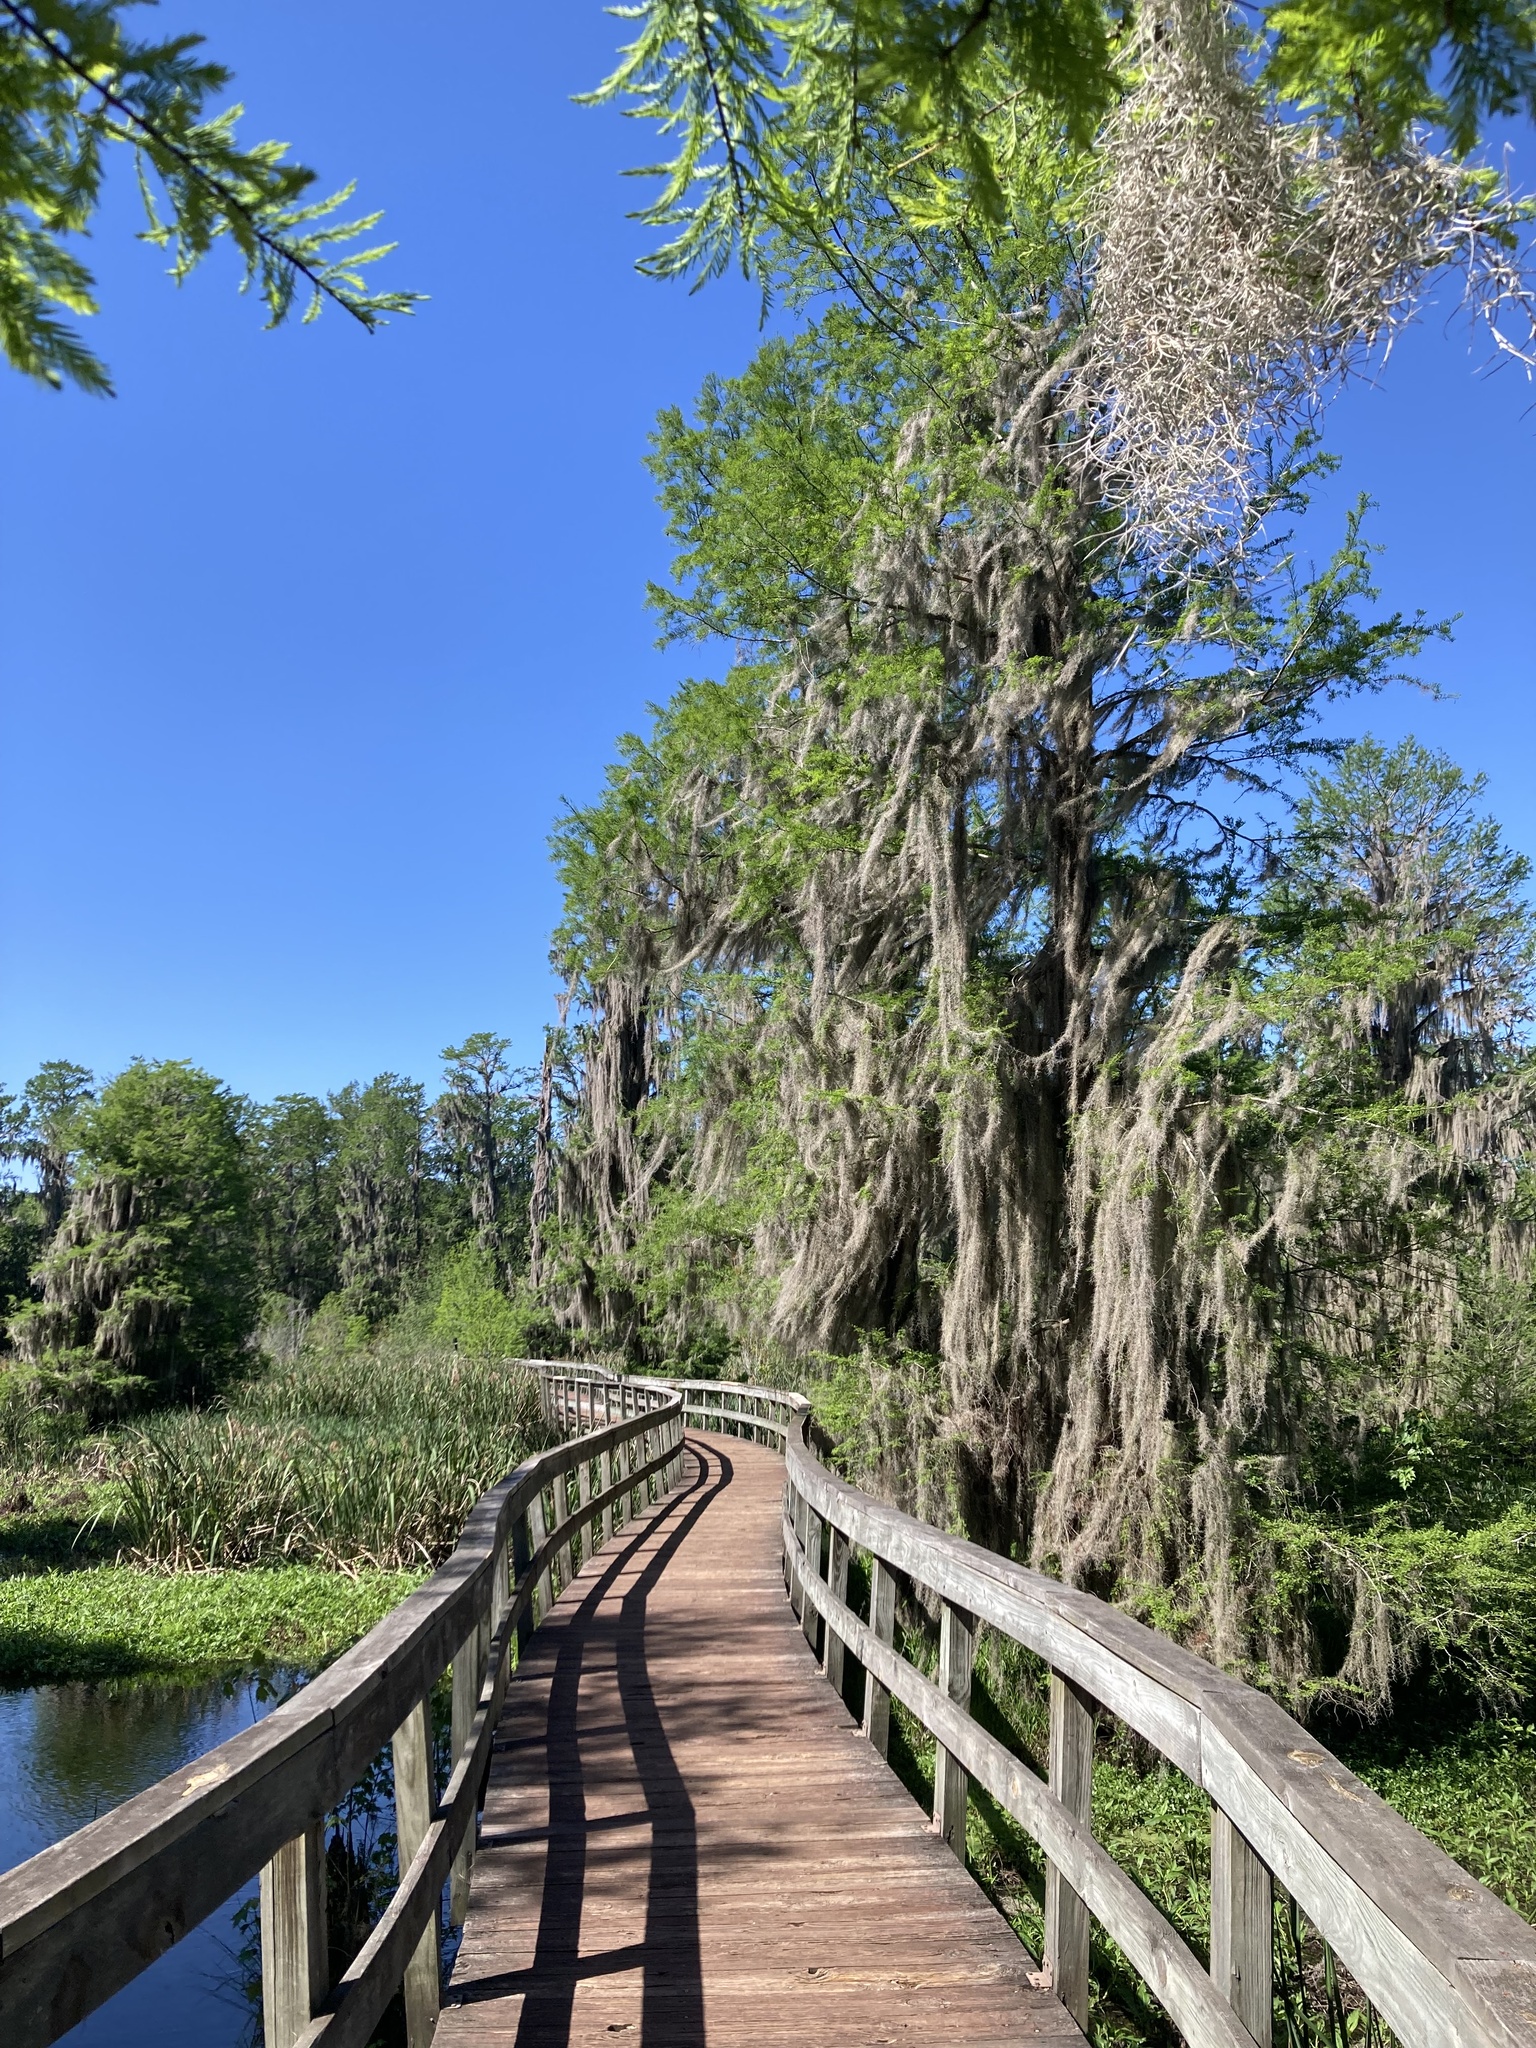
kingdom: Plantae
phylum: Tracheophyta
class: Liliopsida
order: Poales
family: Bromeliaceae
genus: Tillandsia
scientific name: Tillandsia usneoides
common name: Spanish moss
